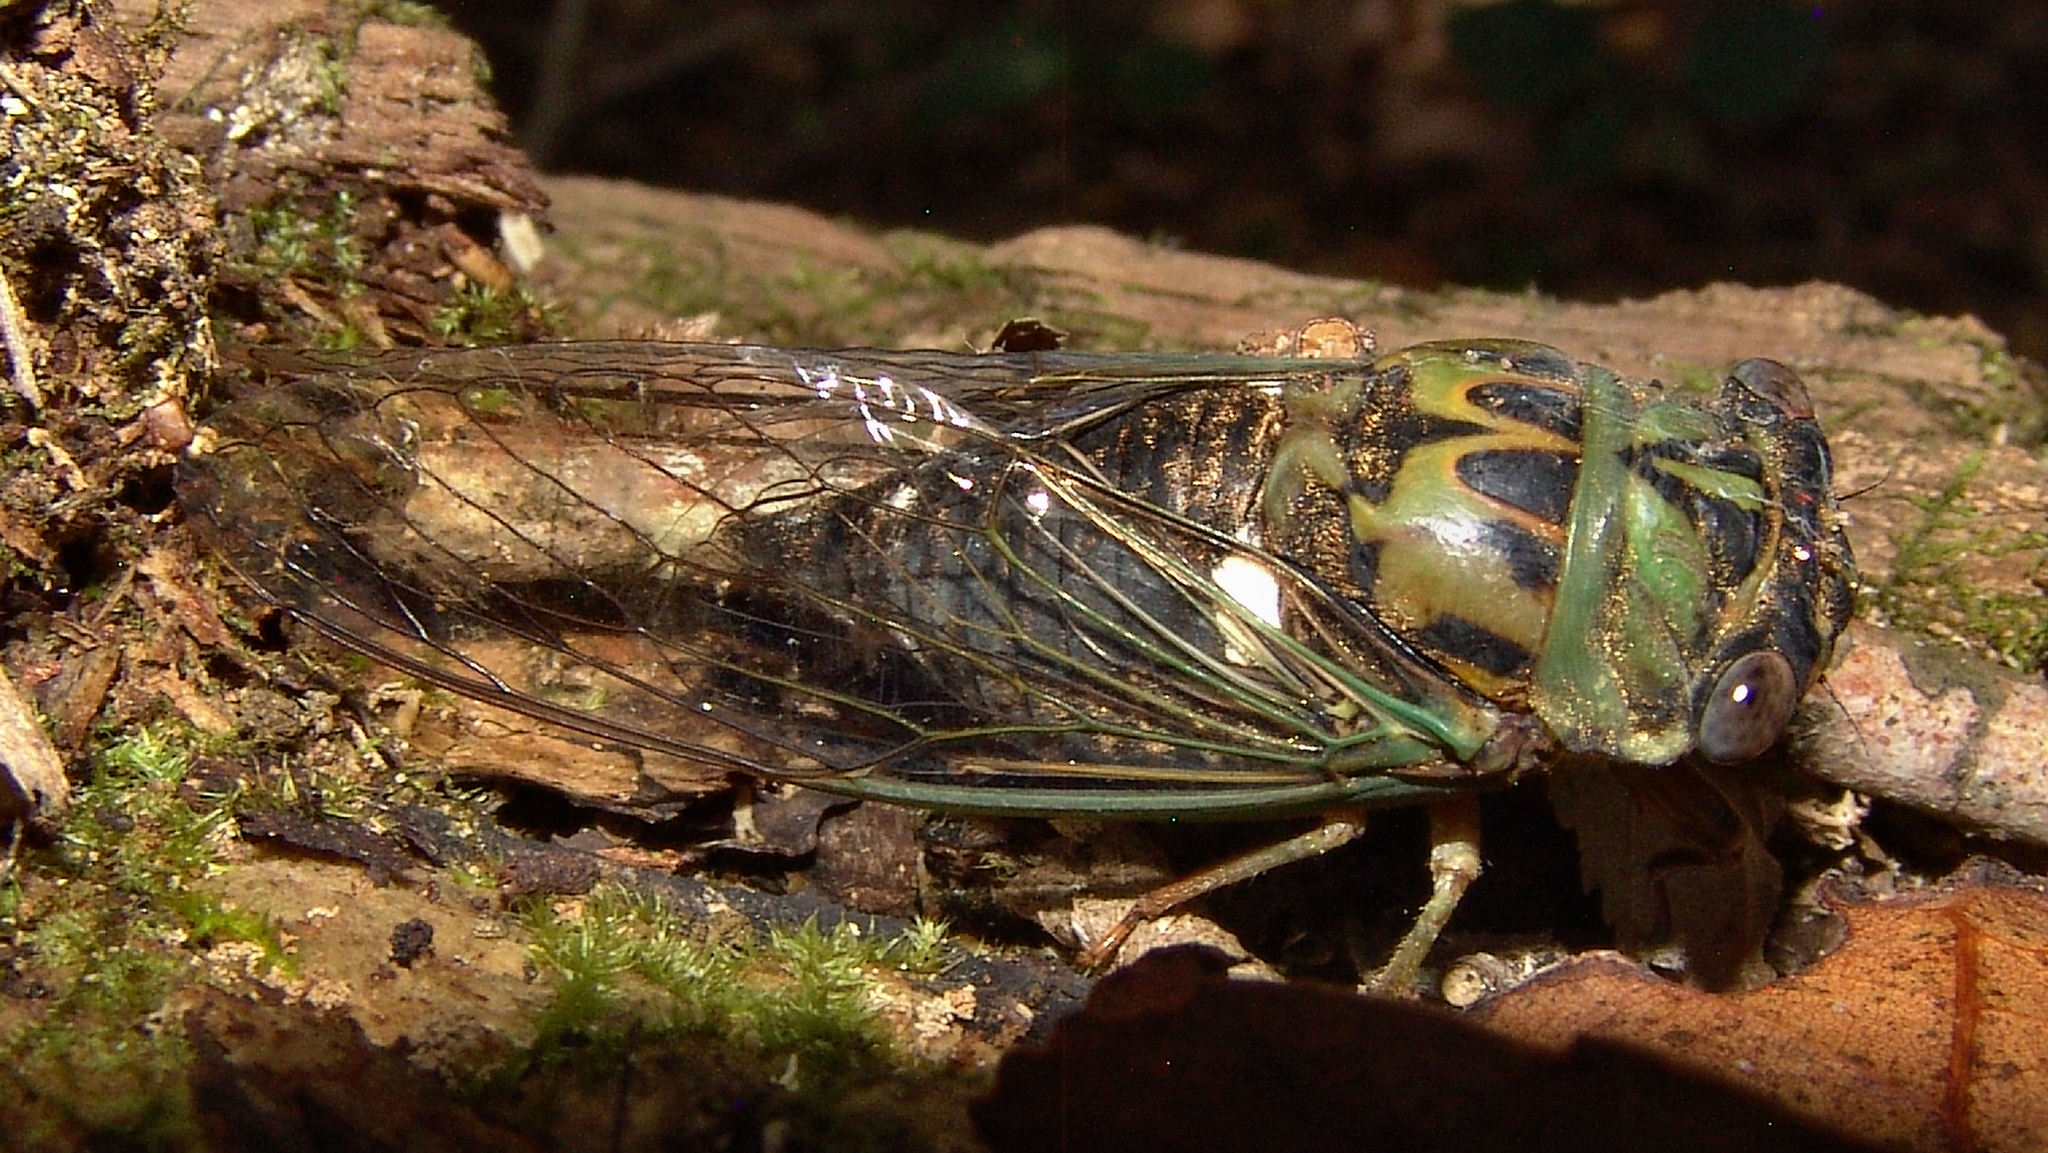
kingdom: Animalia
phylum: Arthropoda
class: Insecta
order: Hemiptera
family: Cicadidae
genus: Neotibicen
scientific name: Neotibicen pruinosus
